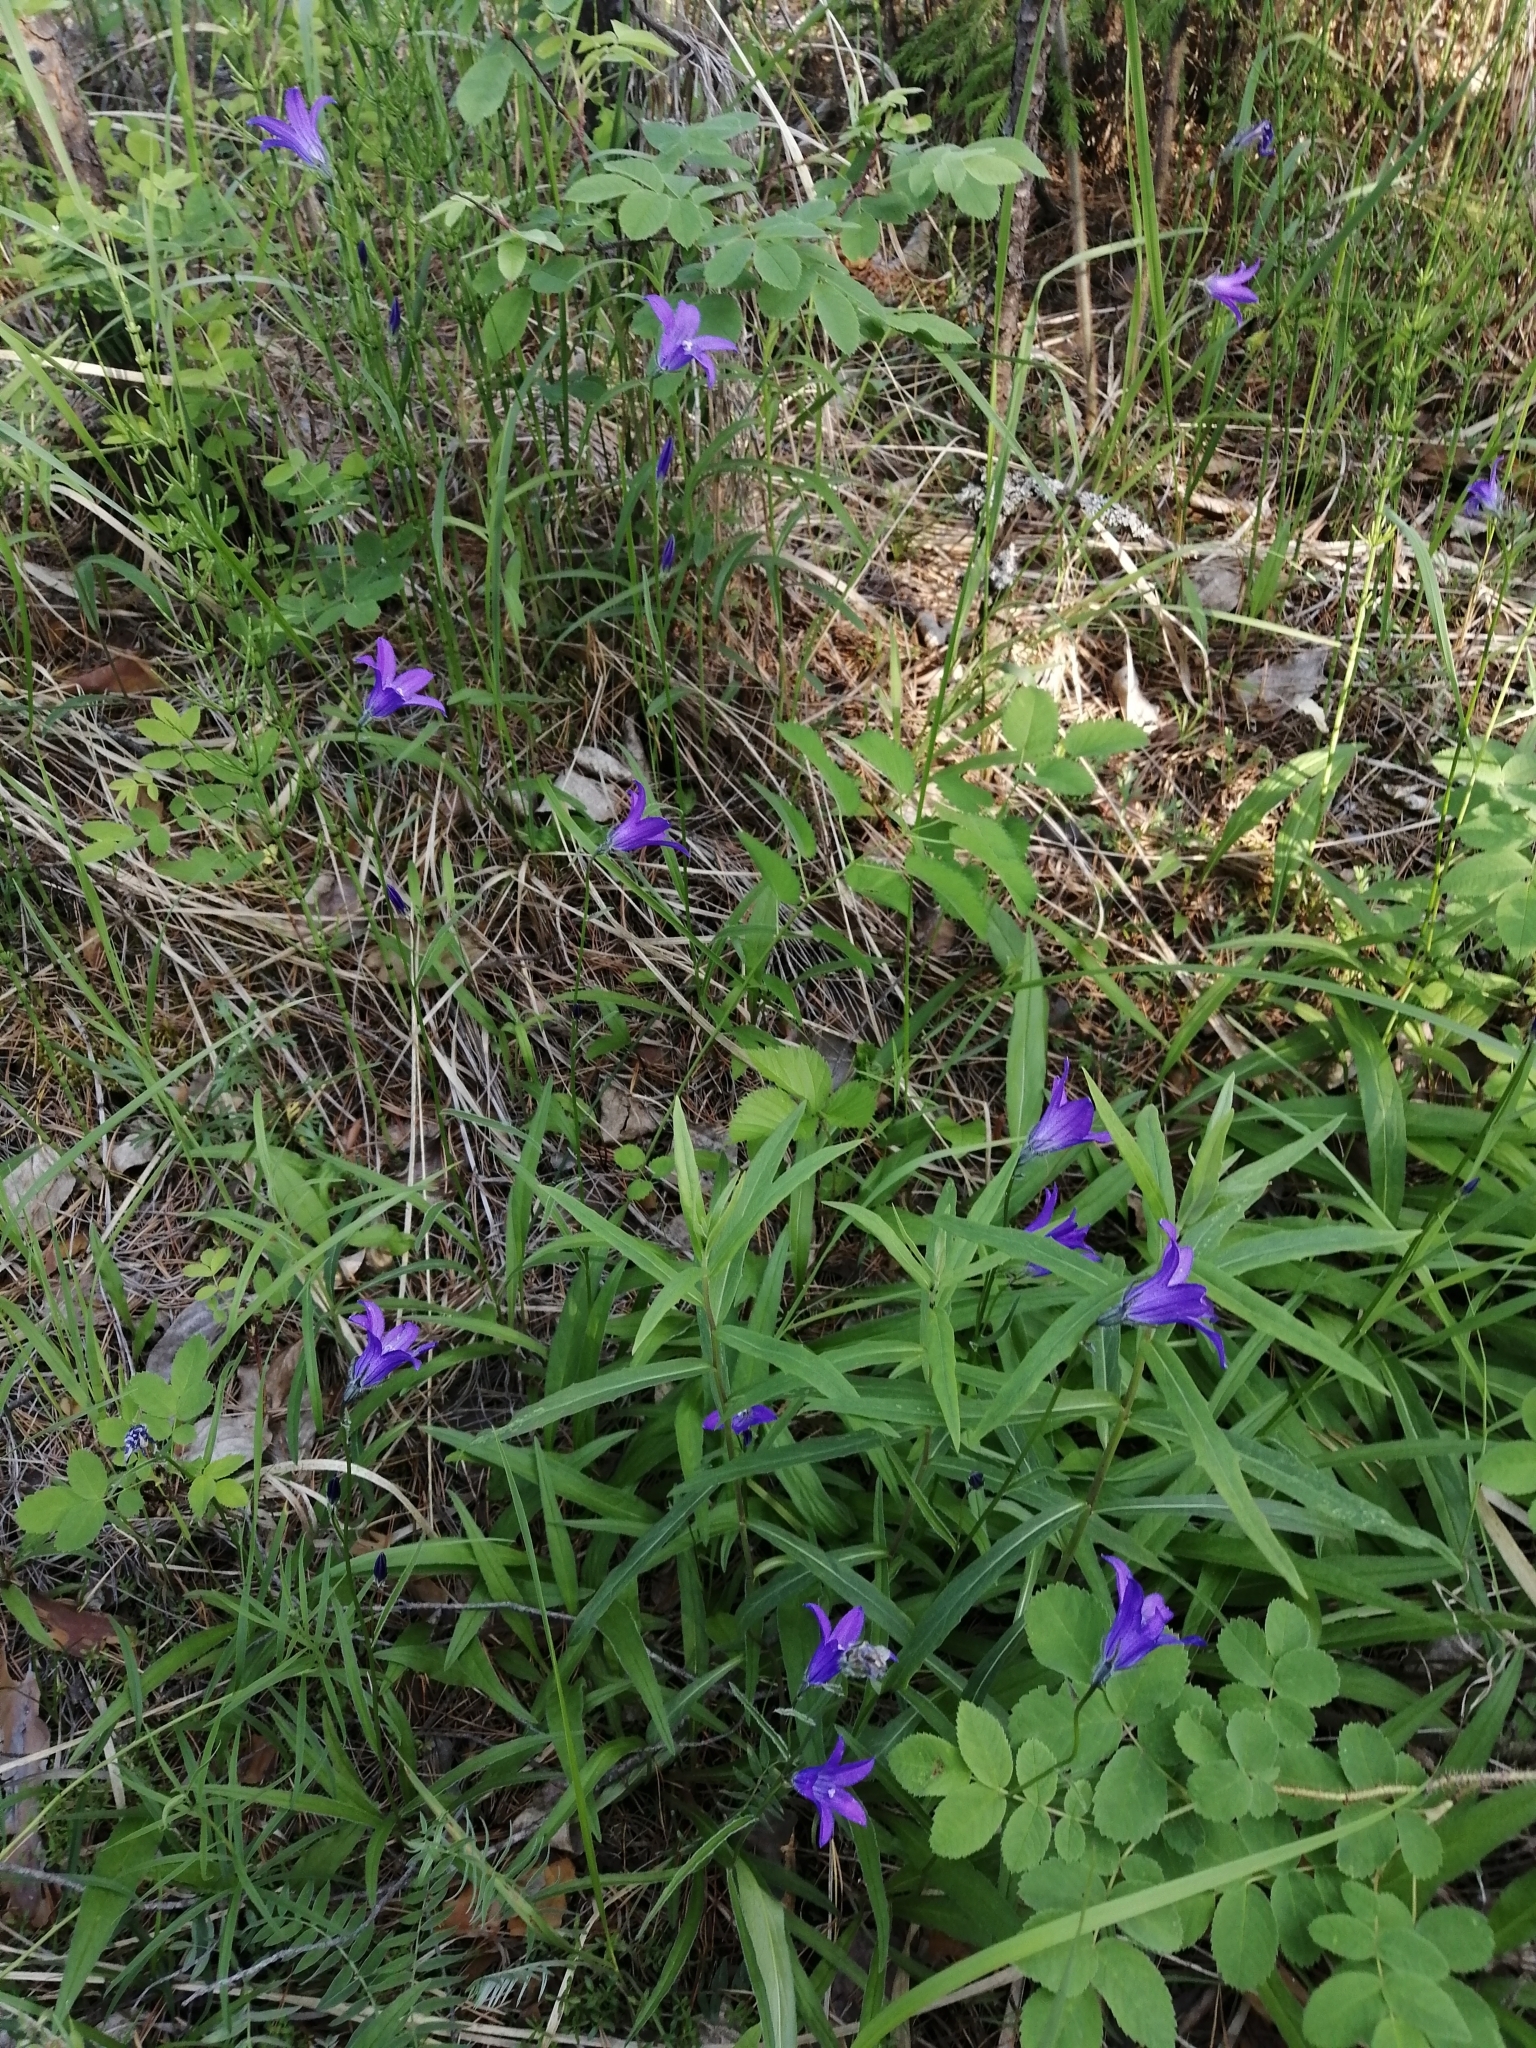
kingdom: Plantae
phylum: Tracheophyta
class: Magnoliopsida
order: Asterales
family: Campanulaceae
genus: Campanula
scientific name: Campanula stevenii
